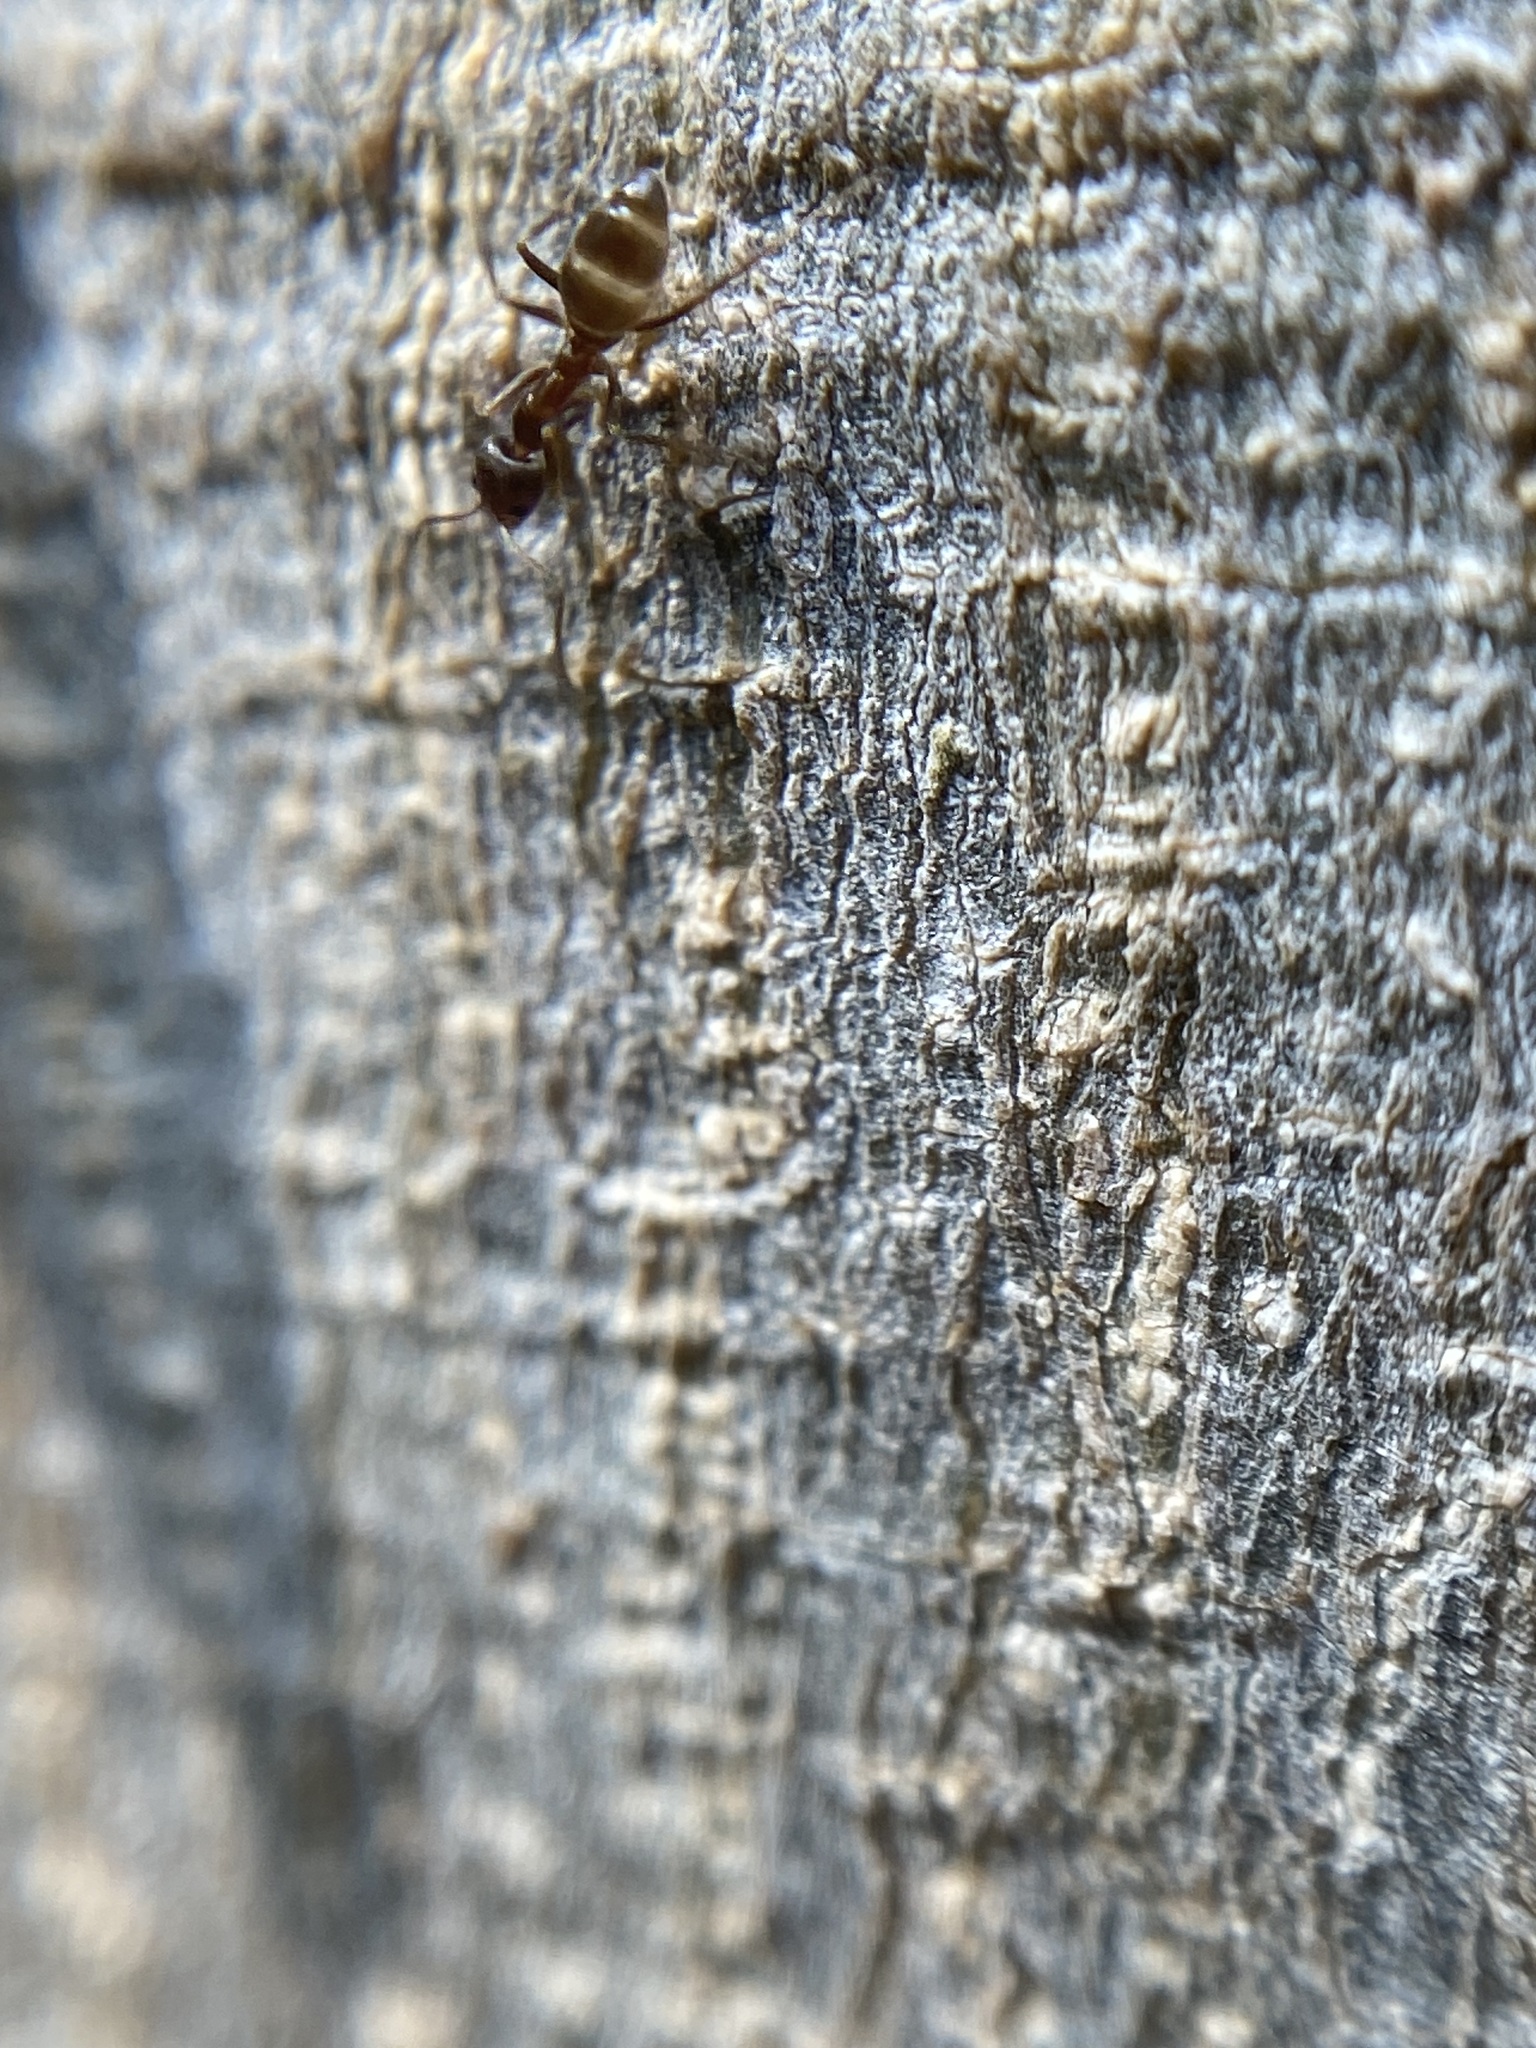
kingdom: Animalia
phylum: Arthropoda
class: Insecta
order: Hymenoptera
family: Formicidae
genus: Linepithema
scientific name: Linepithema humile
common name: Argentine ant
